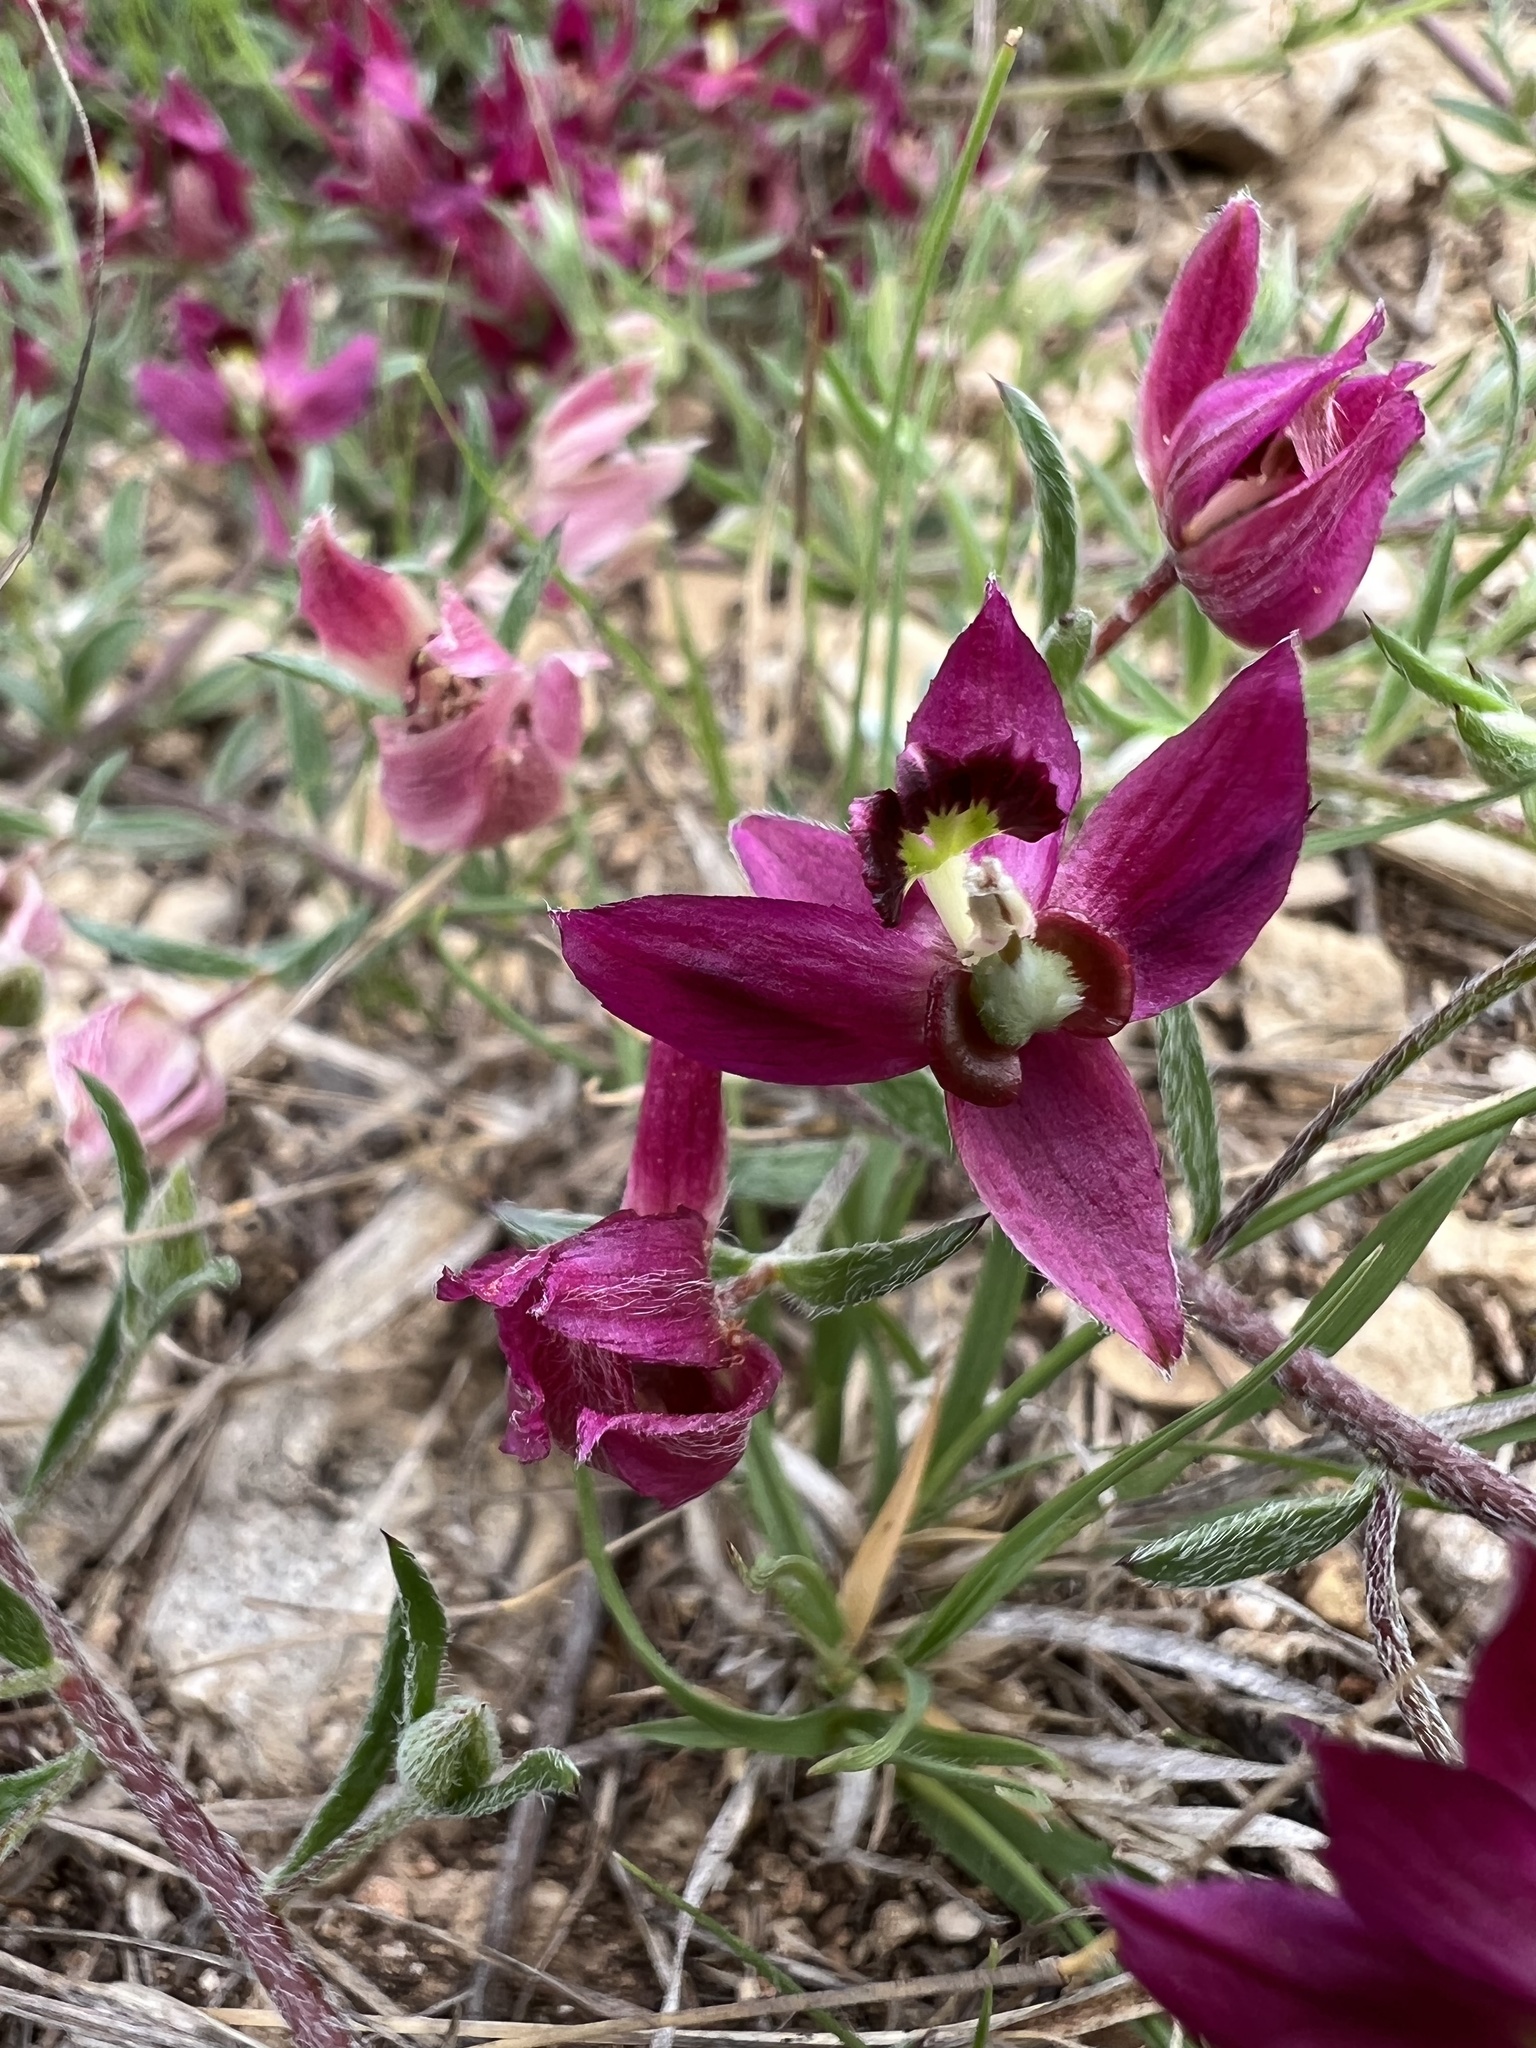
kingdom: Plantae
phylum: Tracheophyta
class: Magnoliopsida
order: Zygophyllales
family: Krameriaceae
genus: Krameria
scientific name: Krameria lanceolata
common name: Ratany
